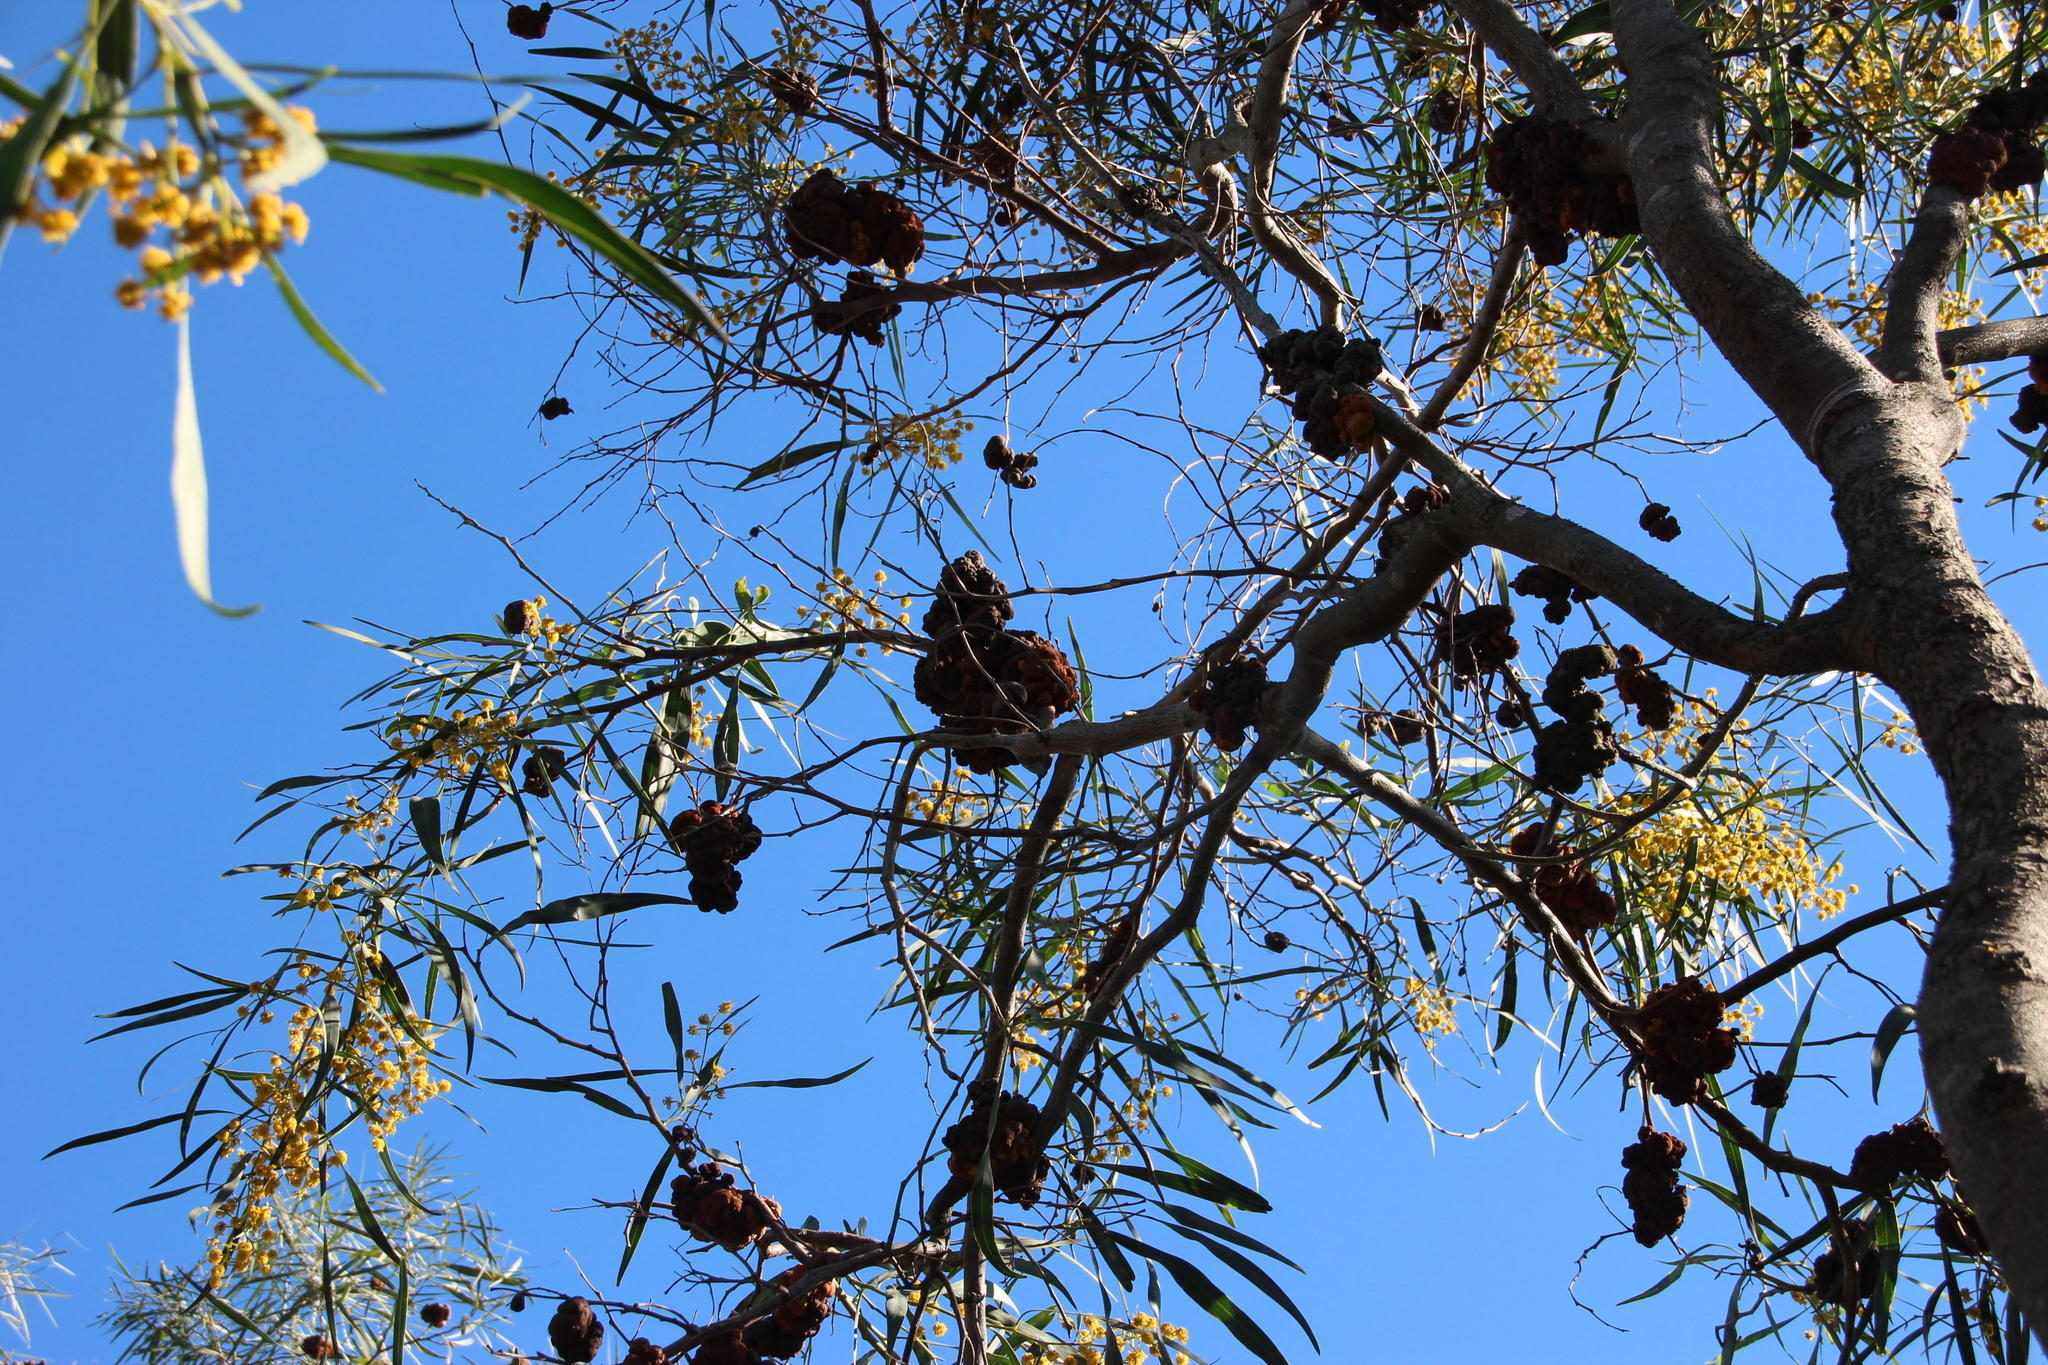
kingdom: Plantae
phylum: Tracheophyta
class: Magnoliopsida
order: Fabales
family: Fabaceae
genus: Acacia
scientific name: Acacia saligna
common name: Orange wattle
